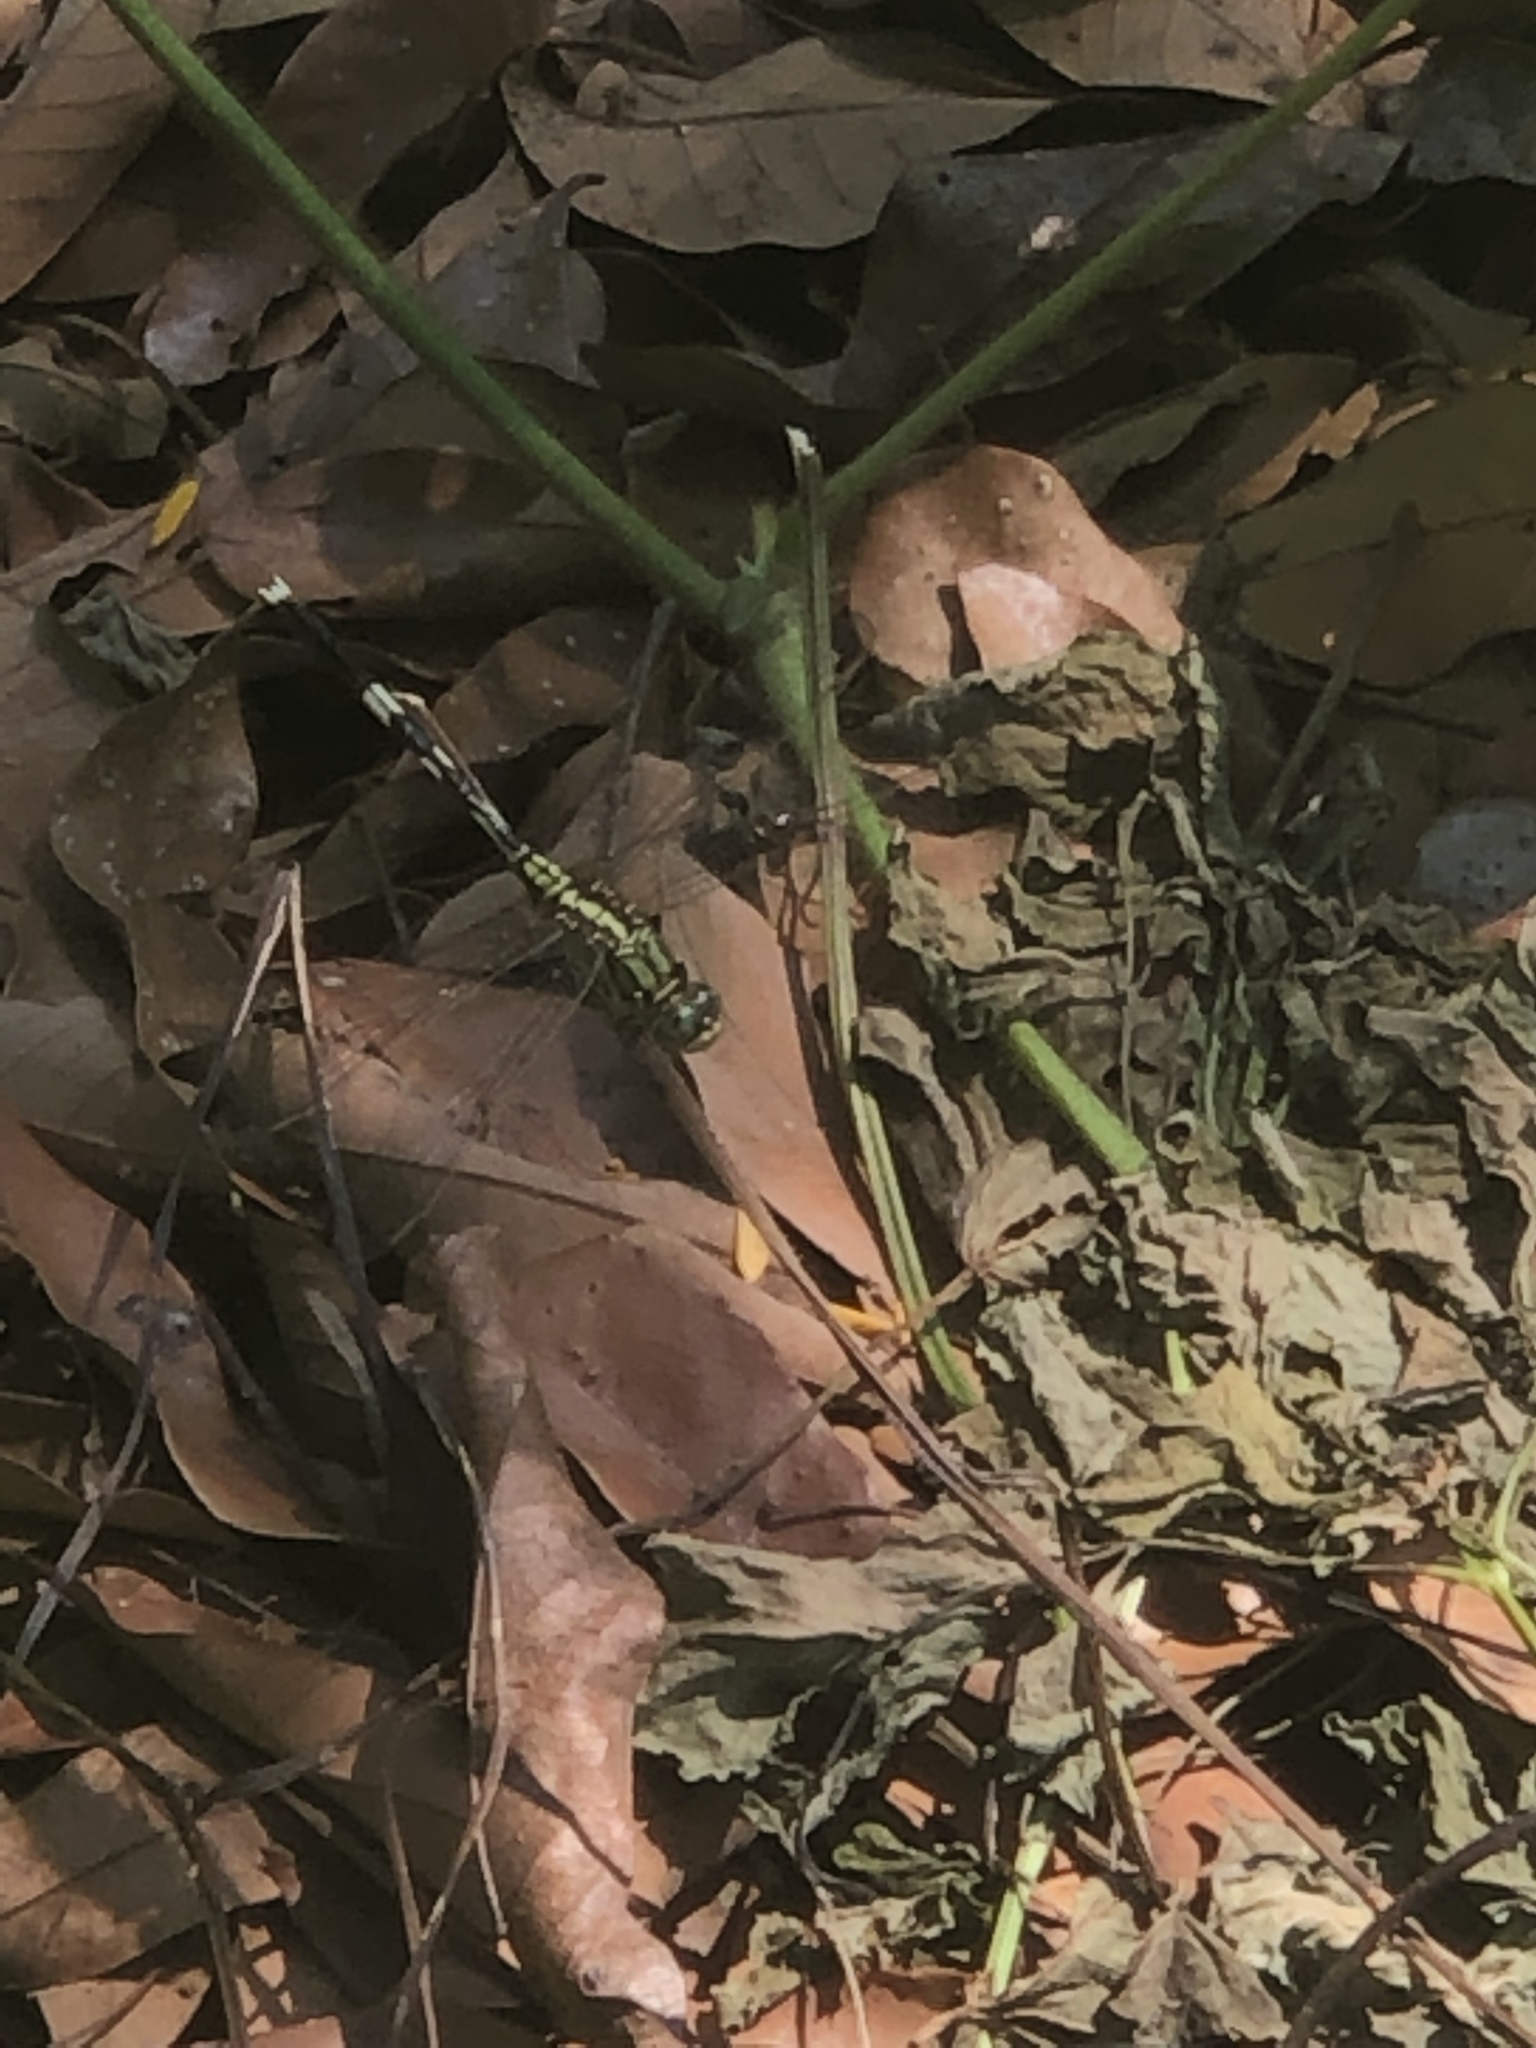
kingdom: Animalia
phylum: Arthropoda
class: Insecta
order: Odonata
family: Libellulidae
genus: Orthetrum
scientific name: Orthetrum sabina
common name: Slender skimmer
